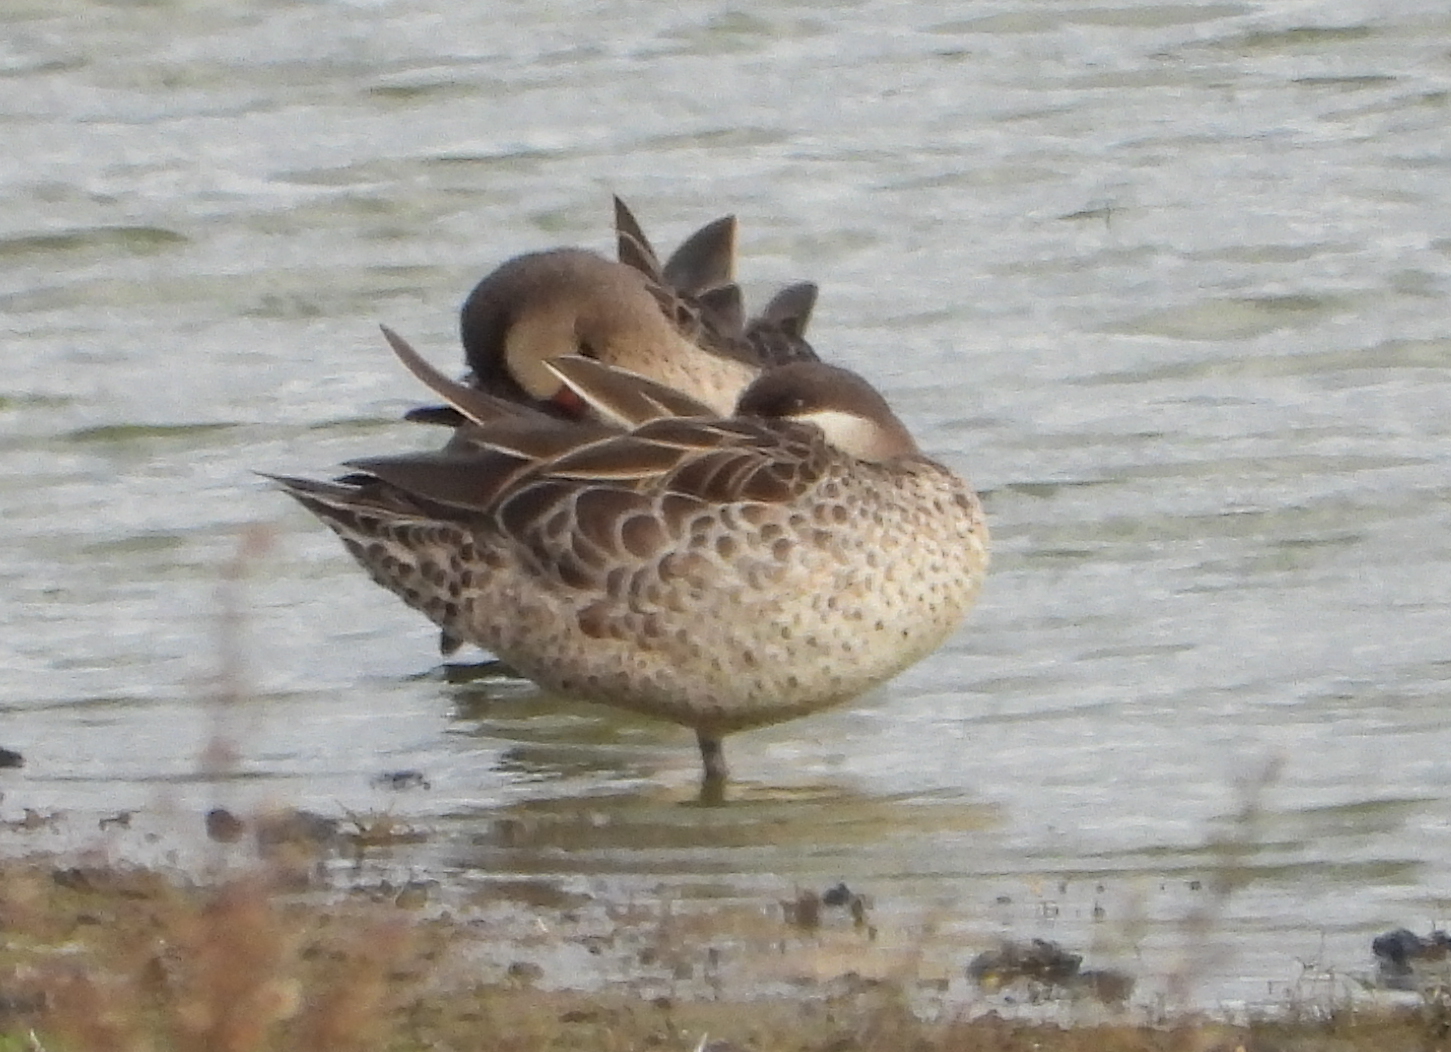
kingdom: Animalia
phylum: Chordata
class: Aves
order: Anseriformes
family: Anatidae
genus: Anas
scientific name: Anas erythrorhyncha
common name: Red-billed teal
